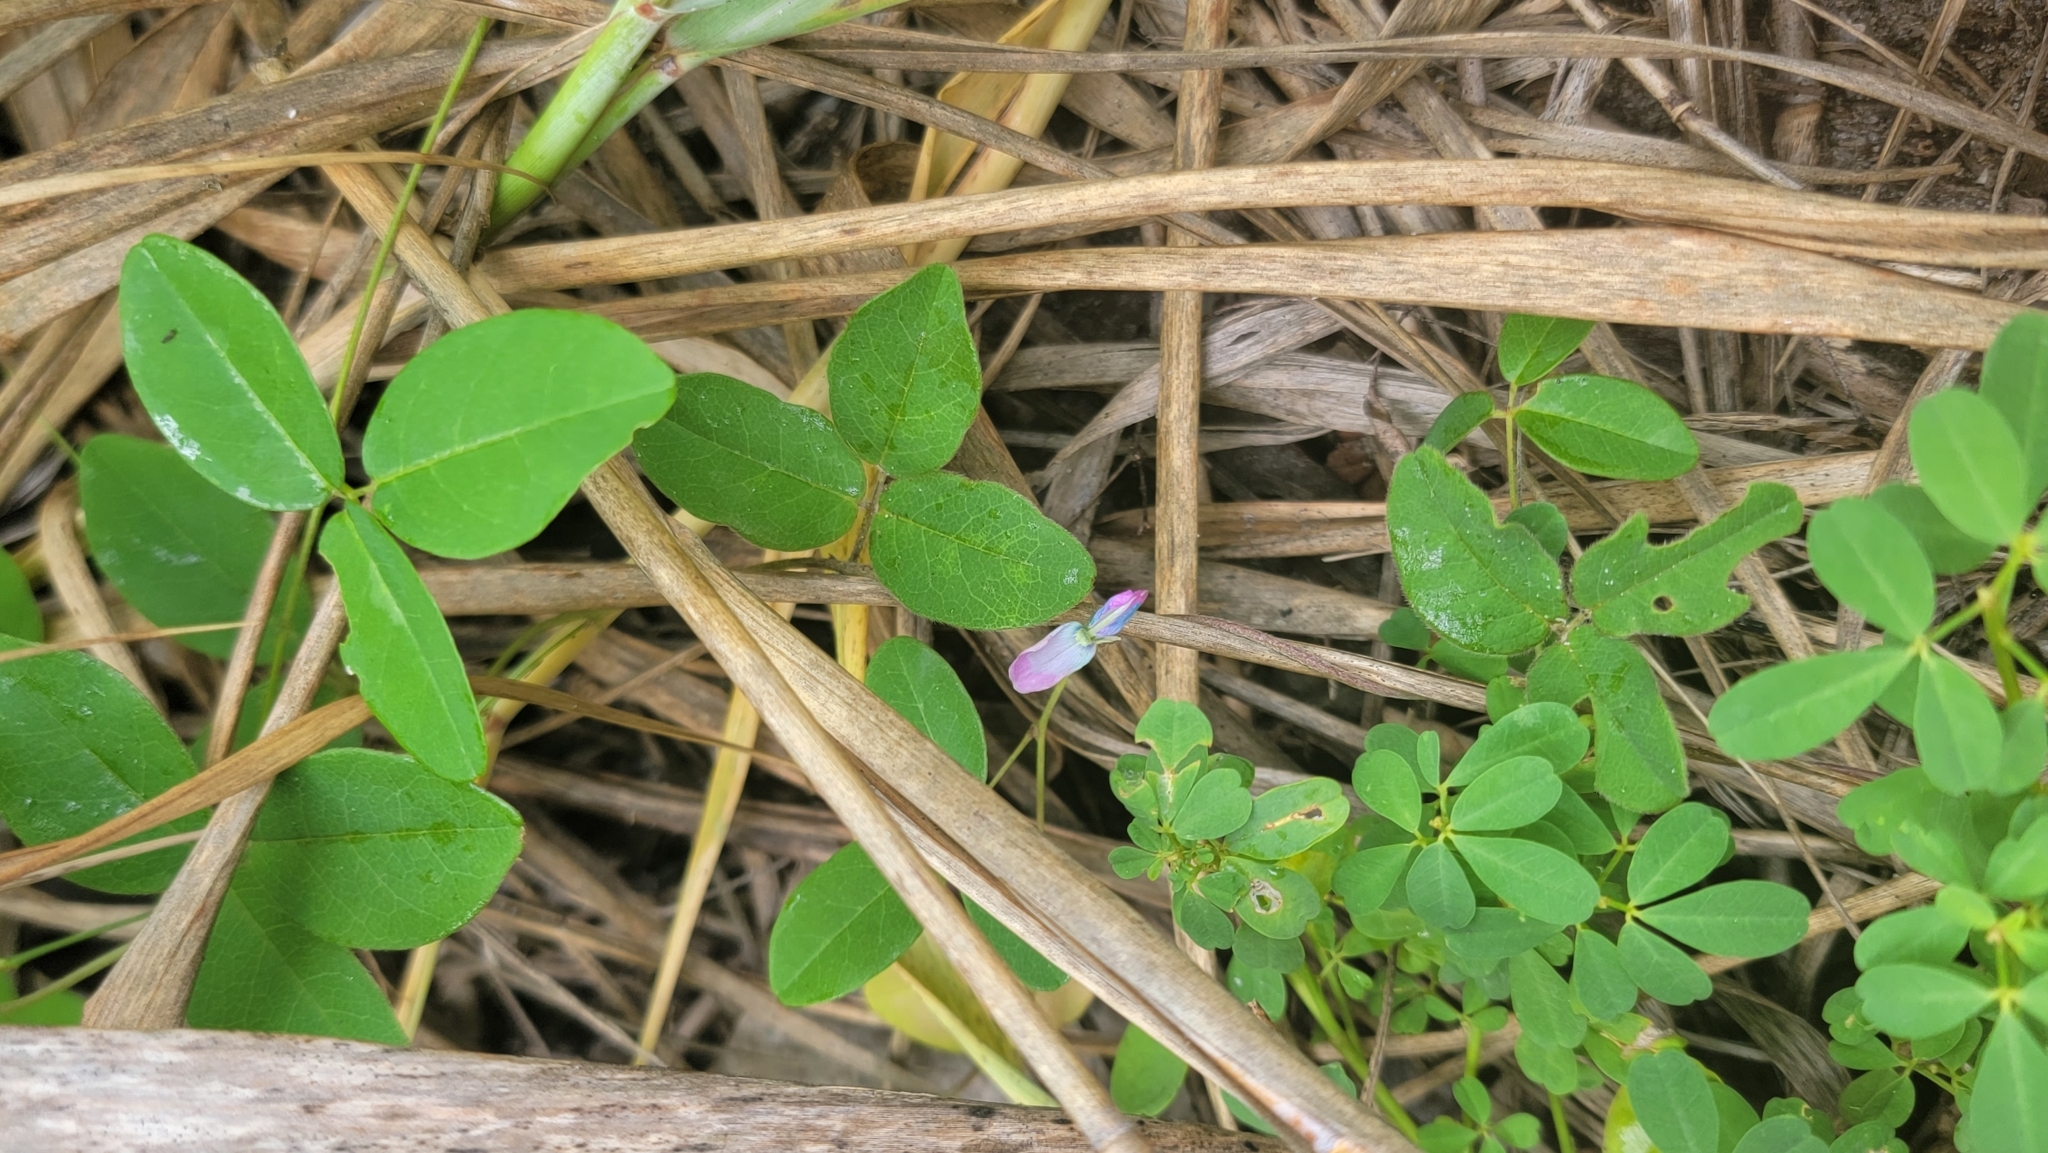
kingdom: Plantae
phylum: Tracheophyta
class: Magnoliopsida
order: Fabales
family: Fabaceae
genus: Galactia
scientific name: Galactia volubilis
